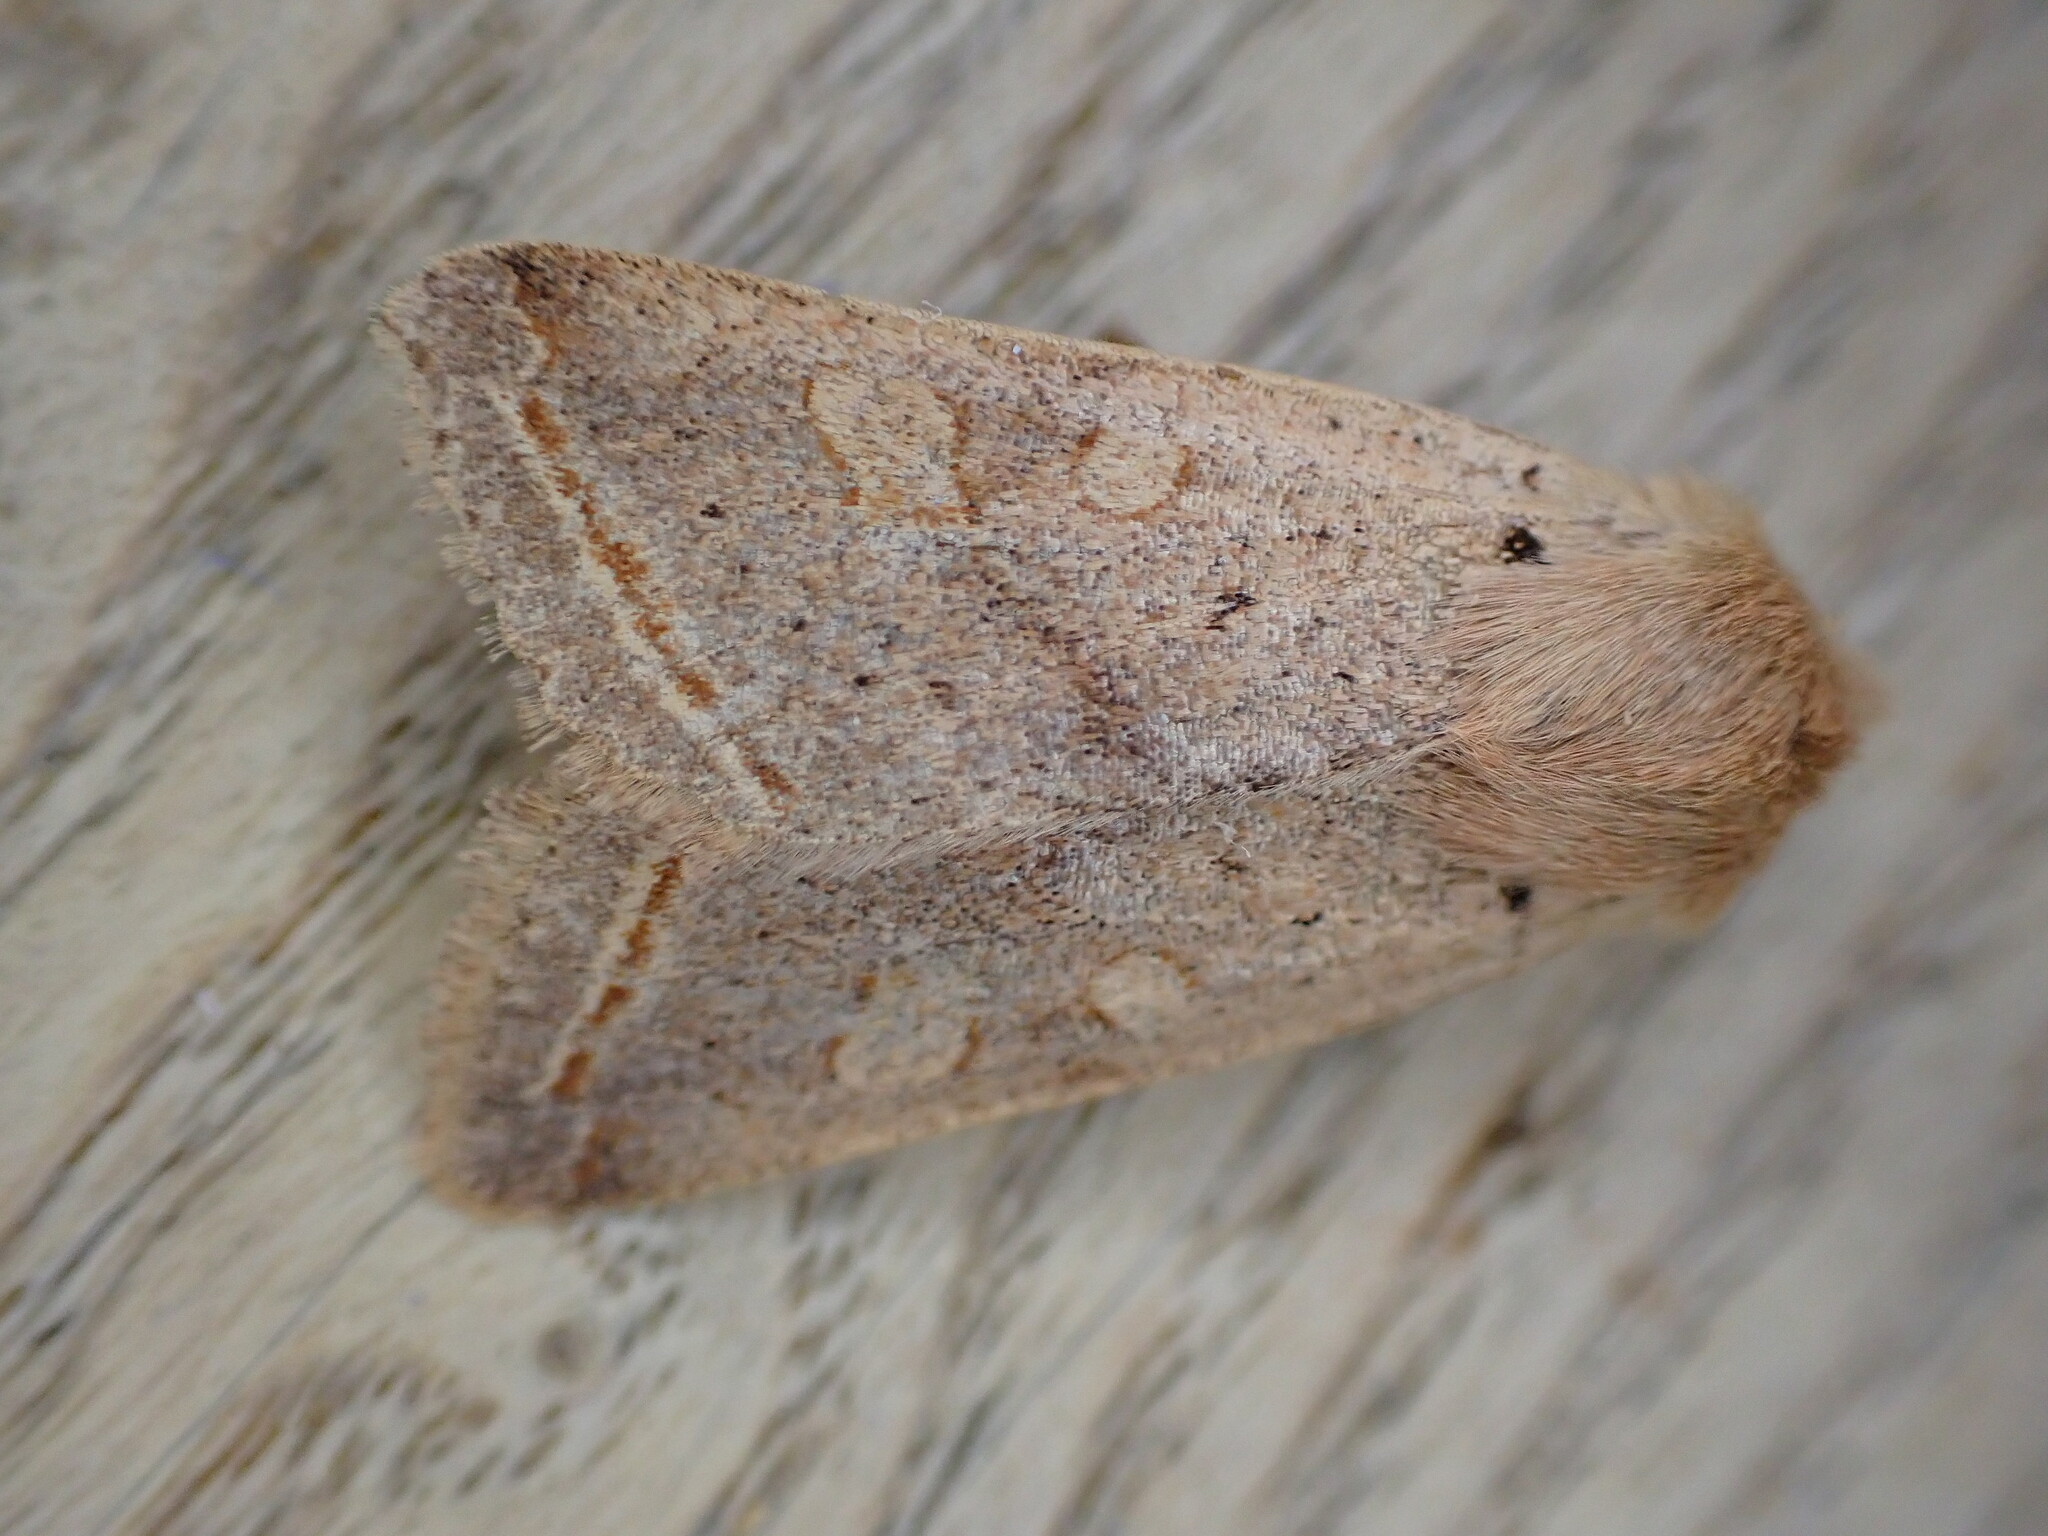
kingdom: Animalia
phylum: Arthropoda
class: Insecta
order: Lepidoptera
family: Noctuidae
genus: Agrochola
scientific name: Agrochola macilenta
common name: Yellow-line quaker
